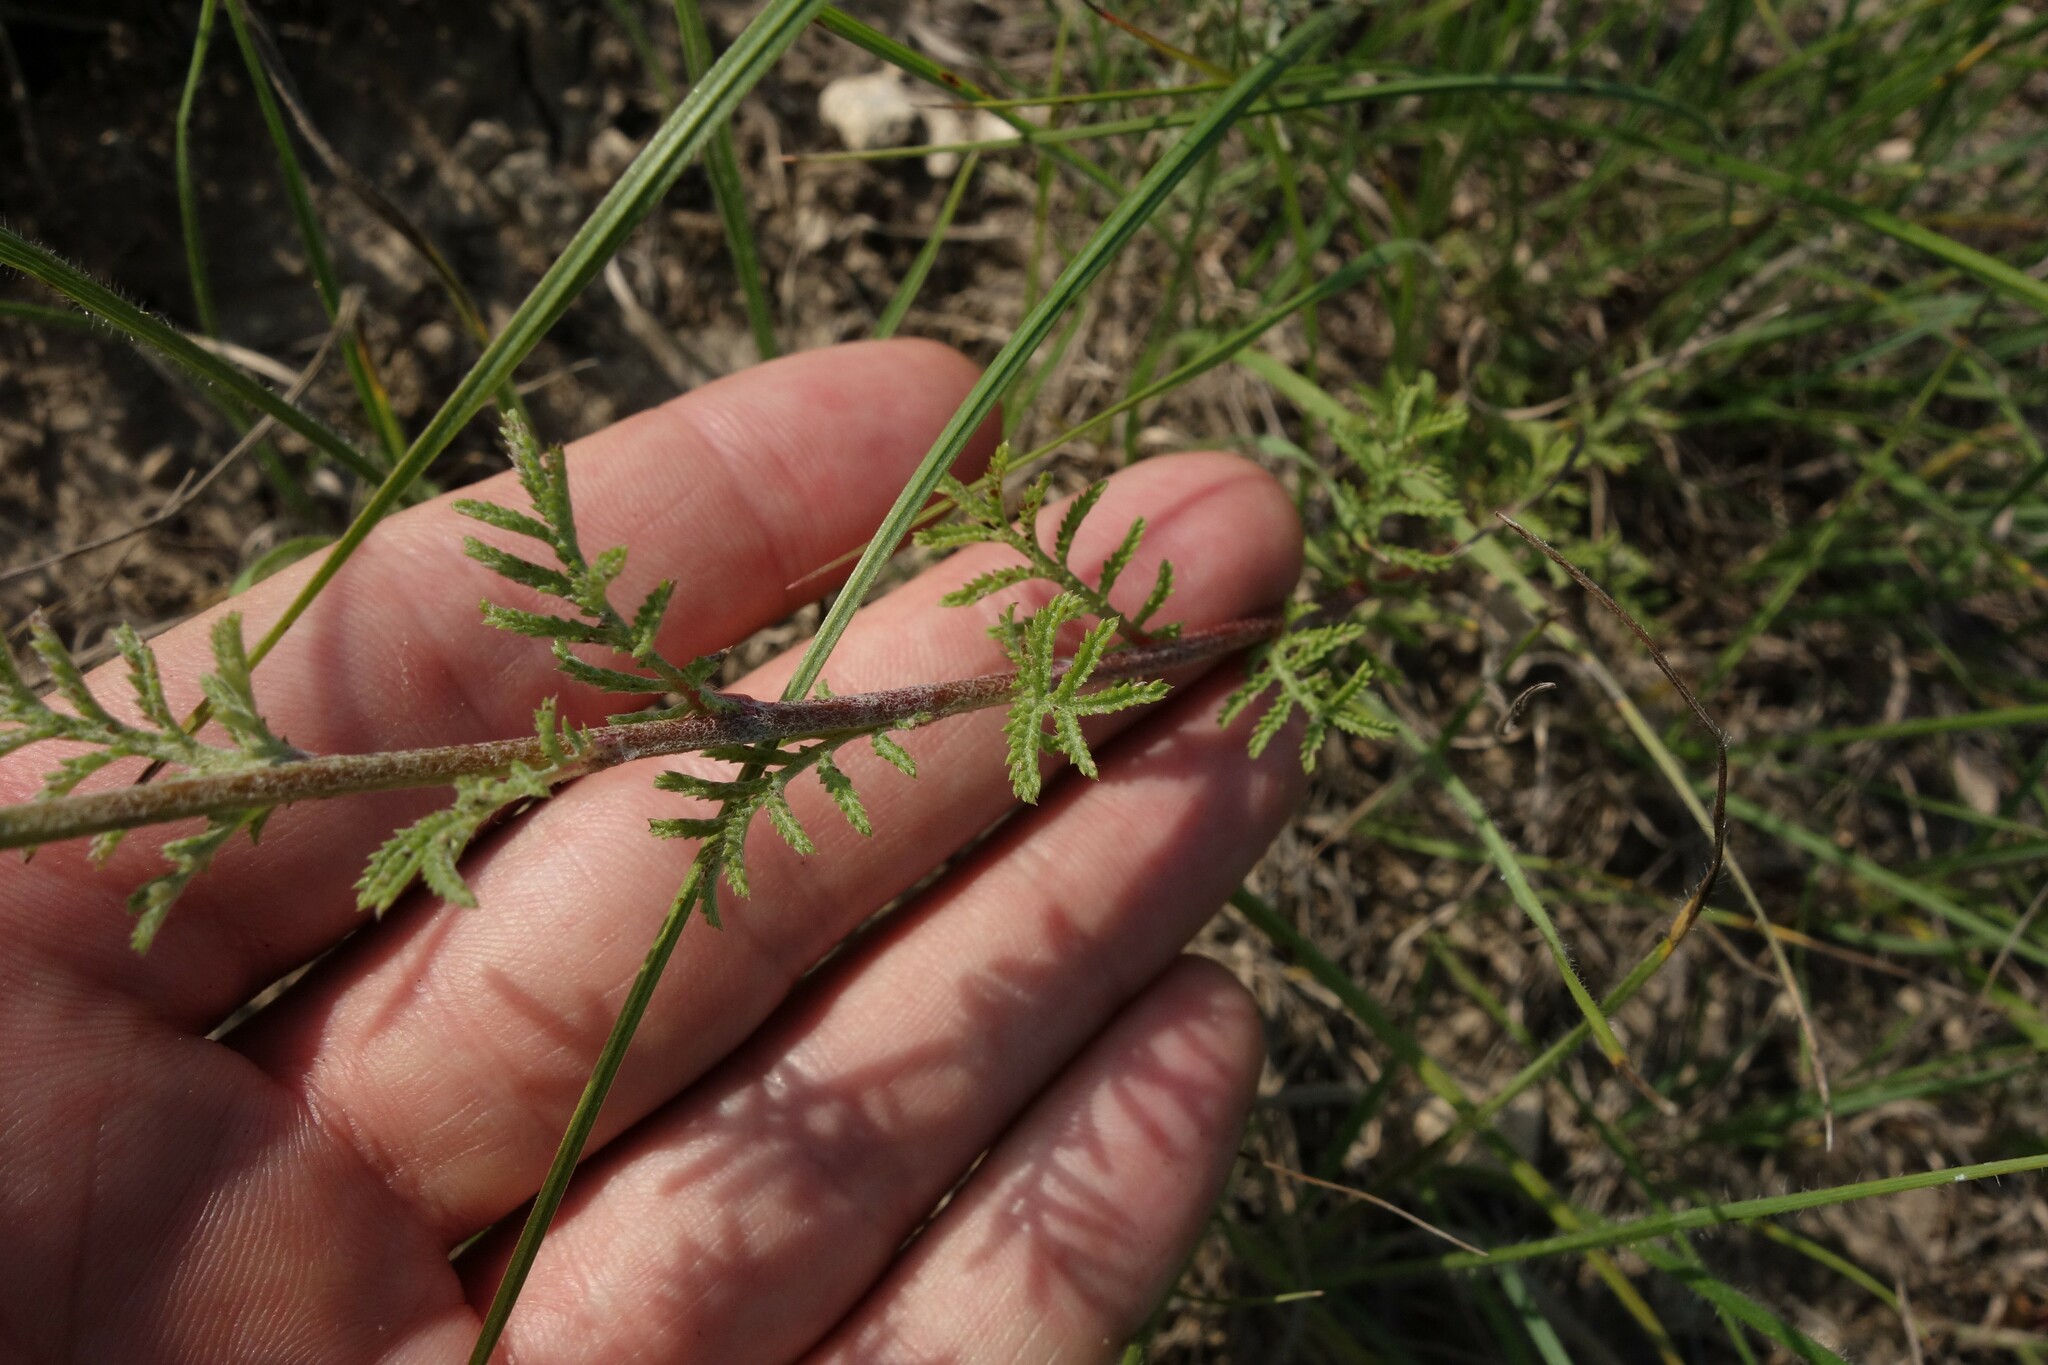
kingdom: Plantae
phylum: Tracheophyta
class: Magnoliopsida
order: Asterales
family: Asteraceae
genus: Cota
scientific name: Cota tinctoria
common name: Golden chamomile
